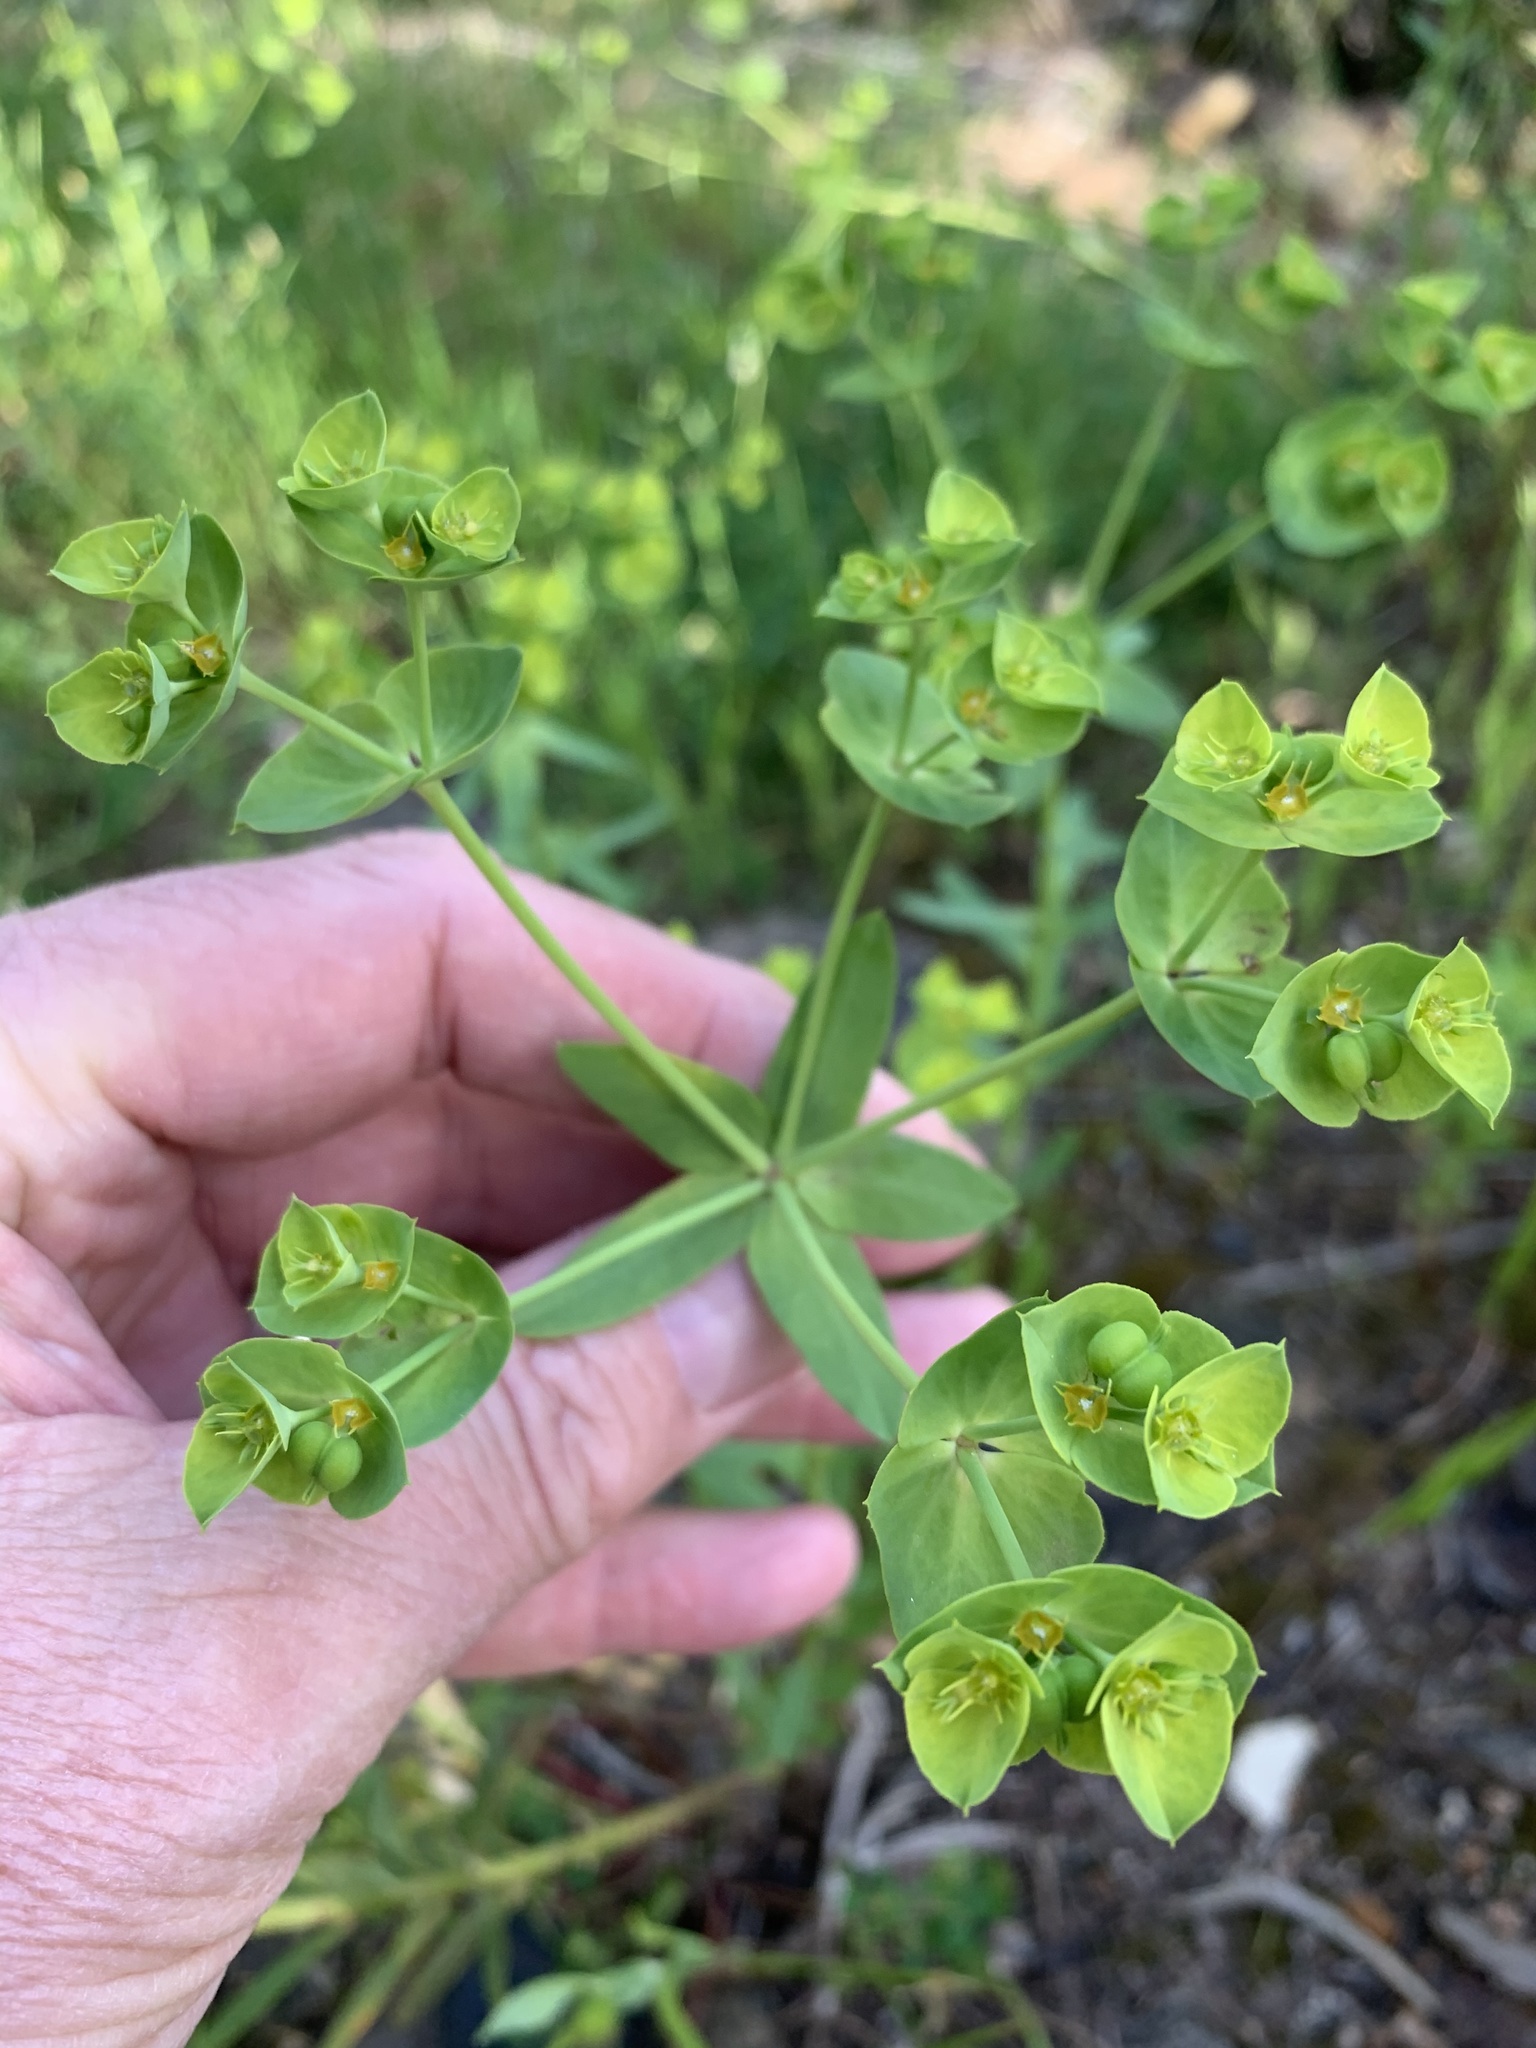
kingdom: Plantae
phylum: Tracheophyta
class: Magnoliopsida
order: Malpighiales
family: Euphorbiaceae
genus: Euphorbia
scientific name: Euphorbia terracina
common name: Geraldton carnation weed
